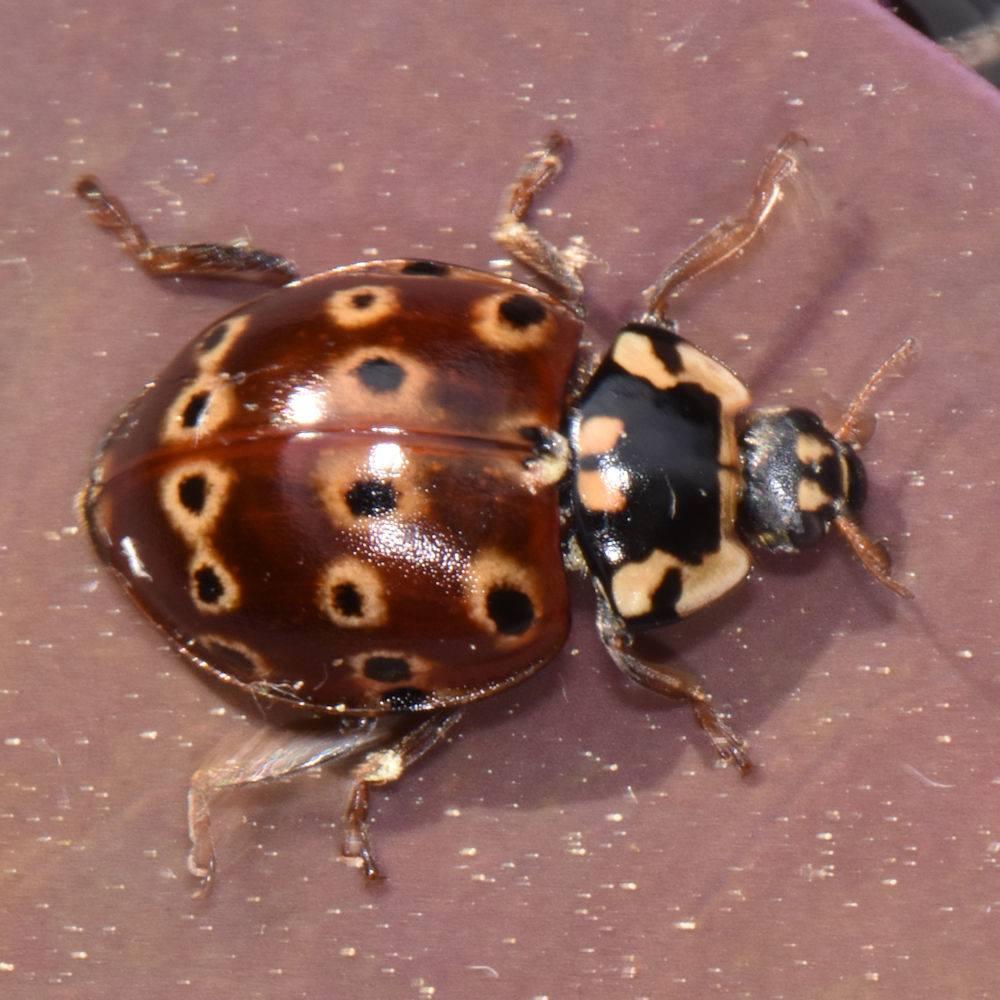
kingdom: Animalia
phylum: Arthropoda
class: Insecta
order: Coleoptera
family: Coccinellidae
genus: Anatis
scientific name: Anatis mali
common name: Eye-spotted lady beetle
